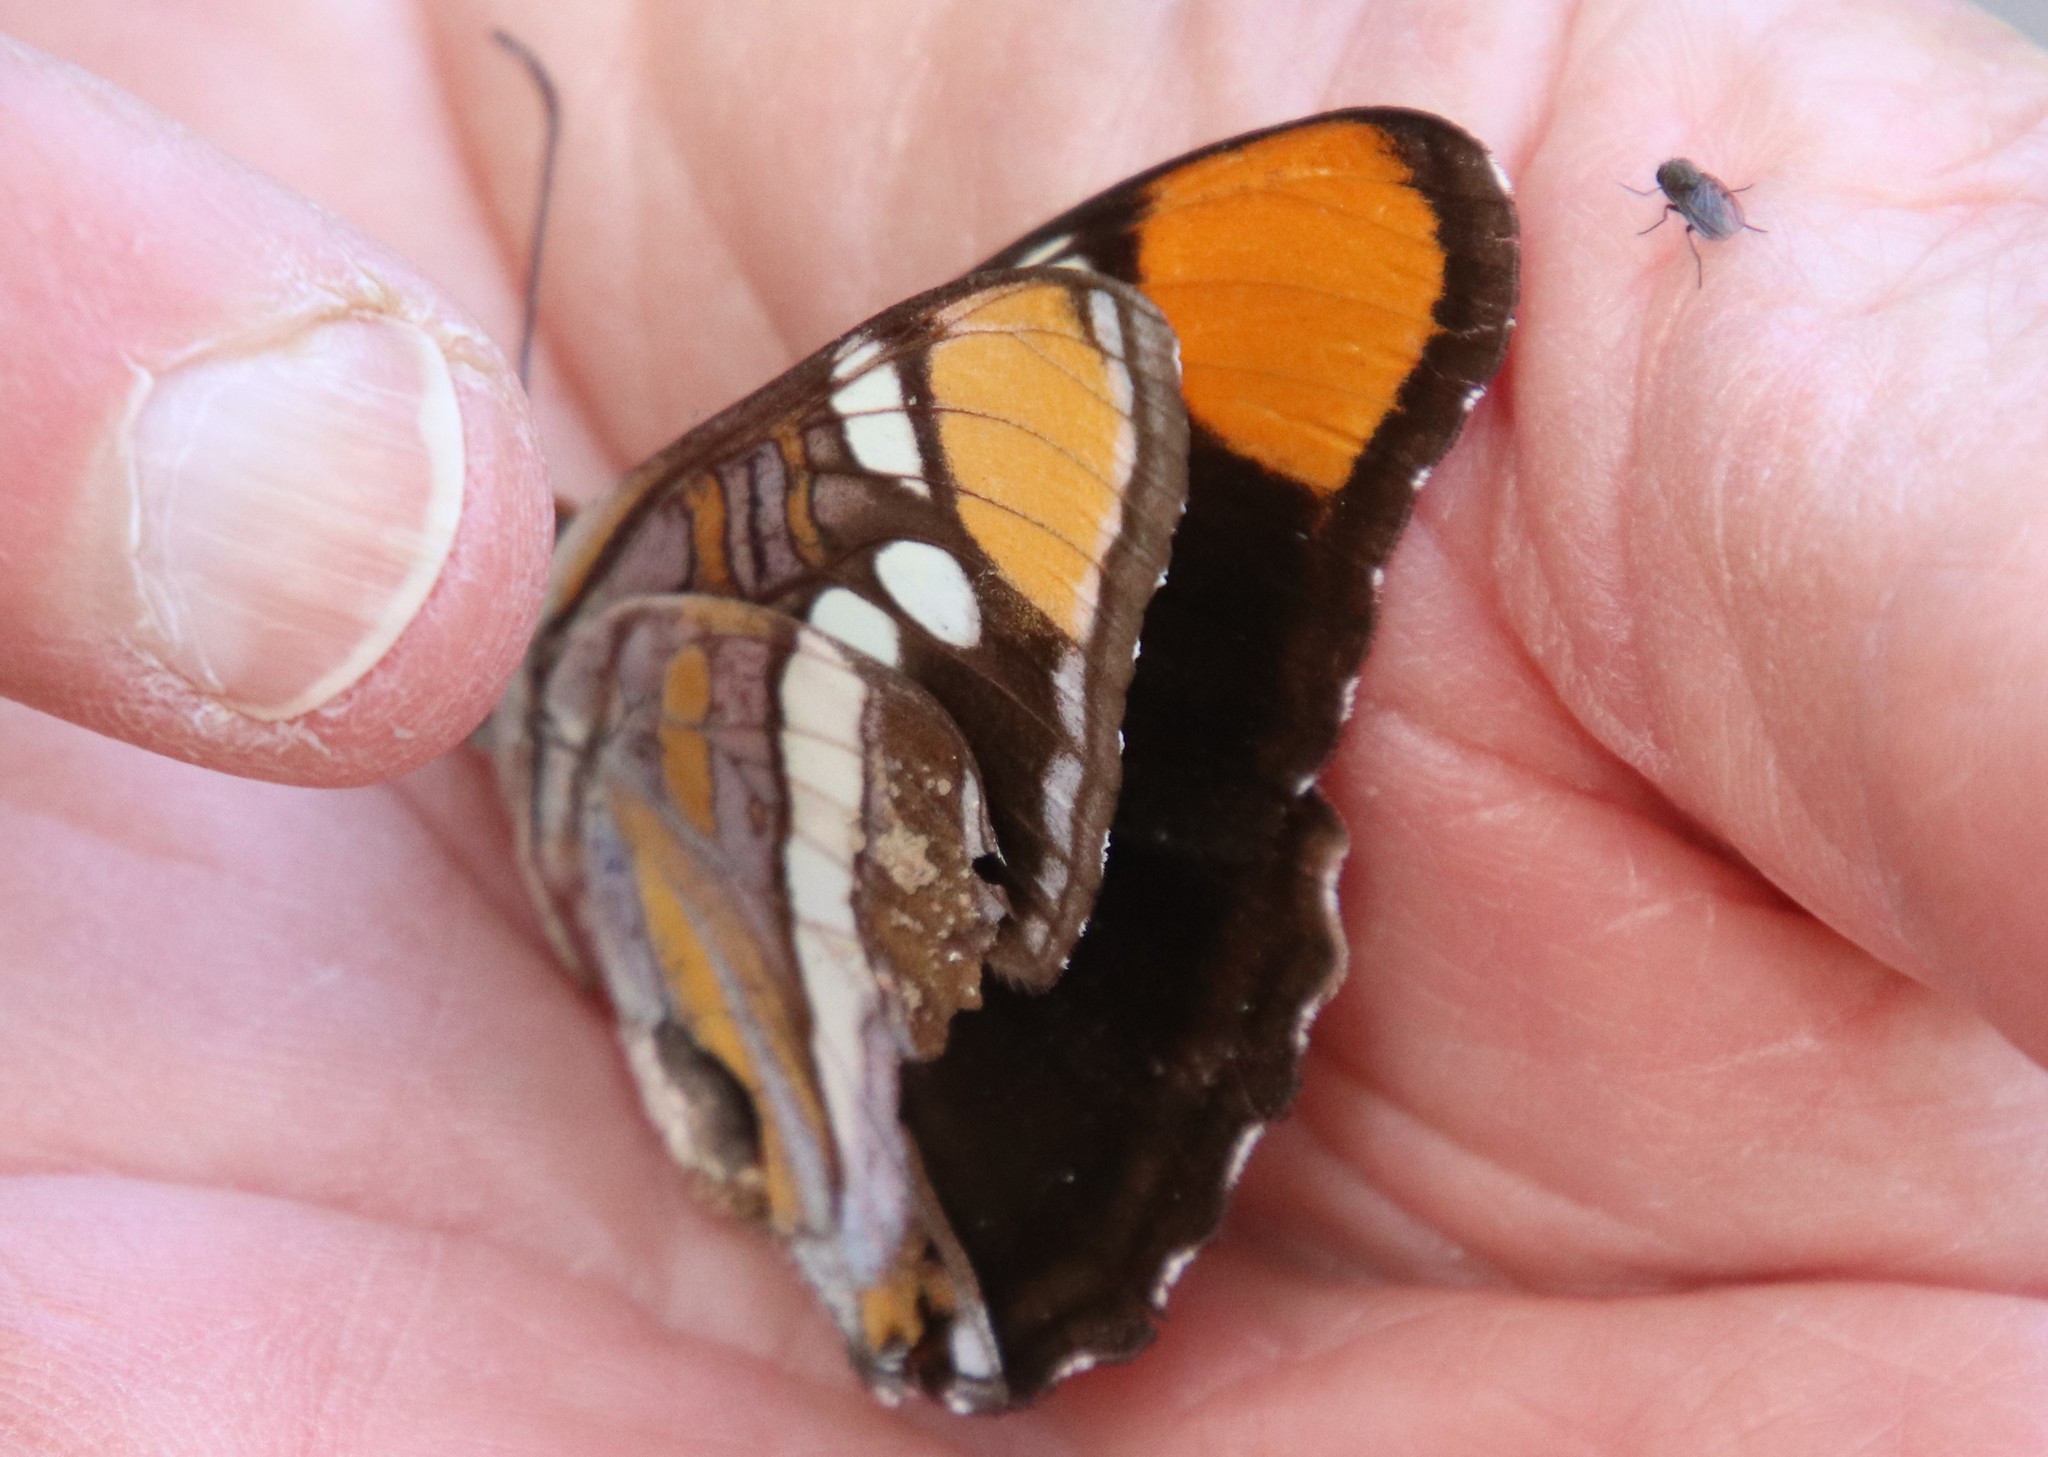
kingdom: Animalia
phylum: Arthropoda
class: Insecta
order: Lepidoptera
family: Nymphalidae
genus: Limenitis
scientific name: Limenitis bredowii
